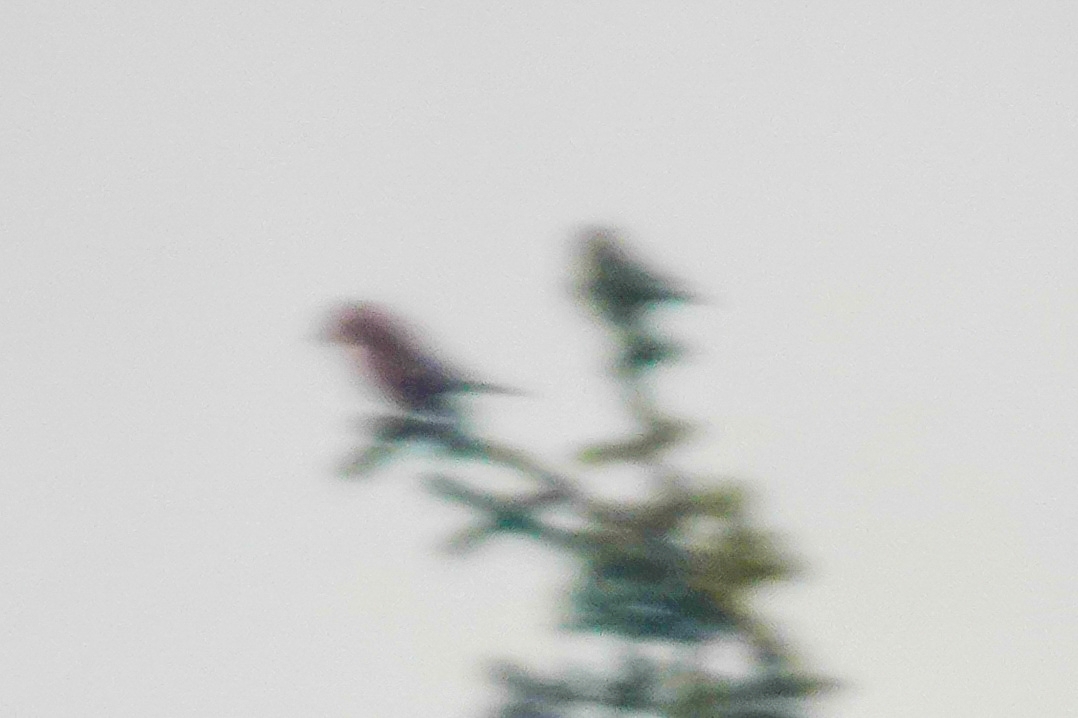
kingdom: Animalia
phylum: Chordata
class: Aves
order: Passeriformes
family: Fringillidae
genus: Loxia
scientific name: Loxia curvirostra
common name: Red crossbill
